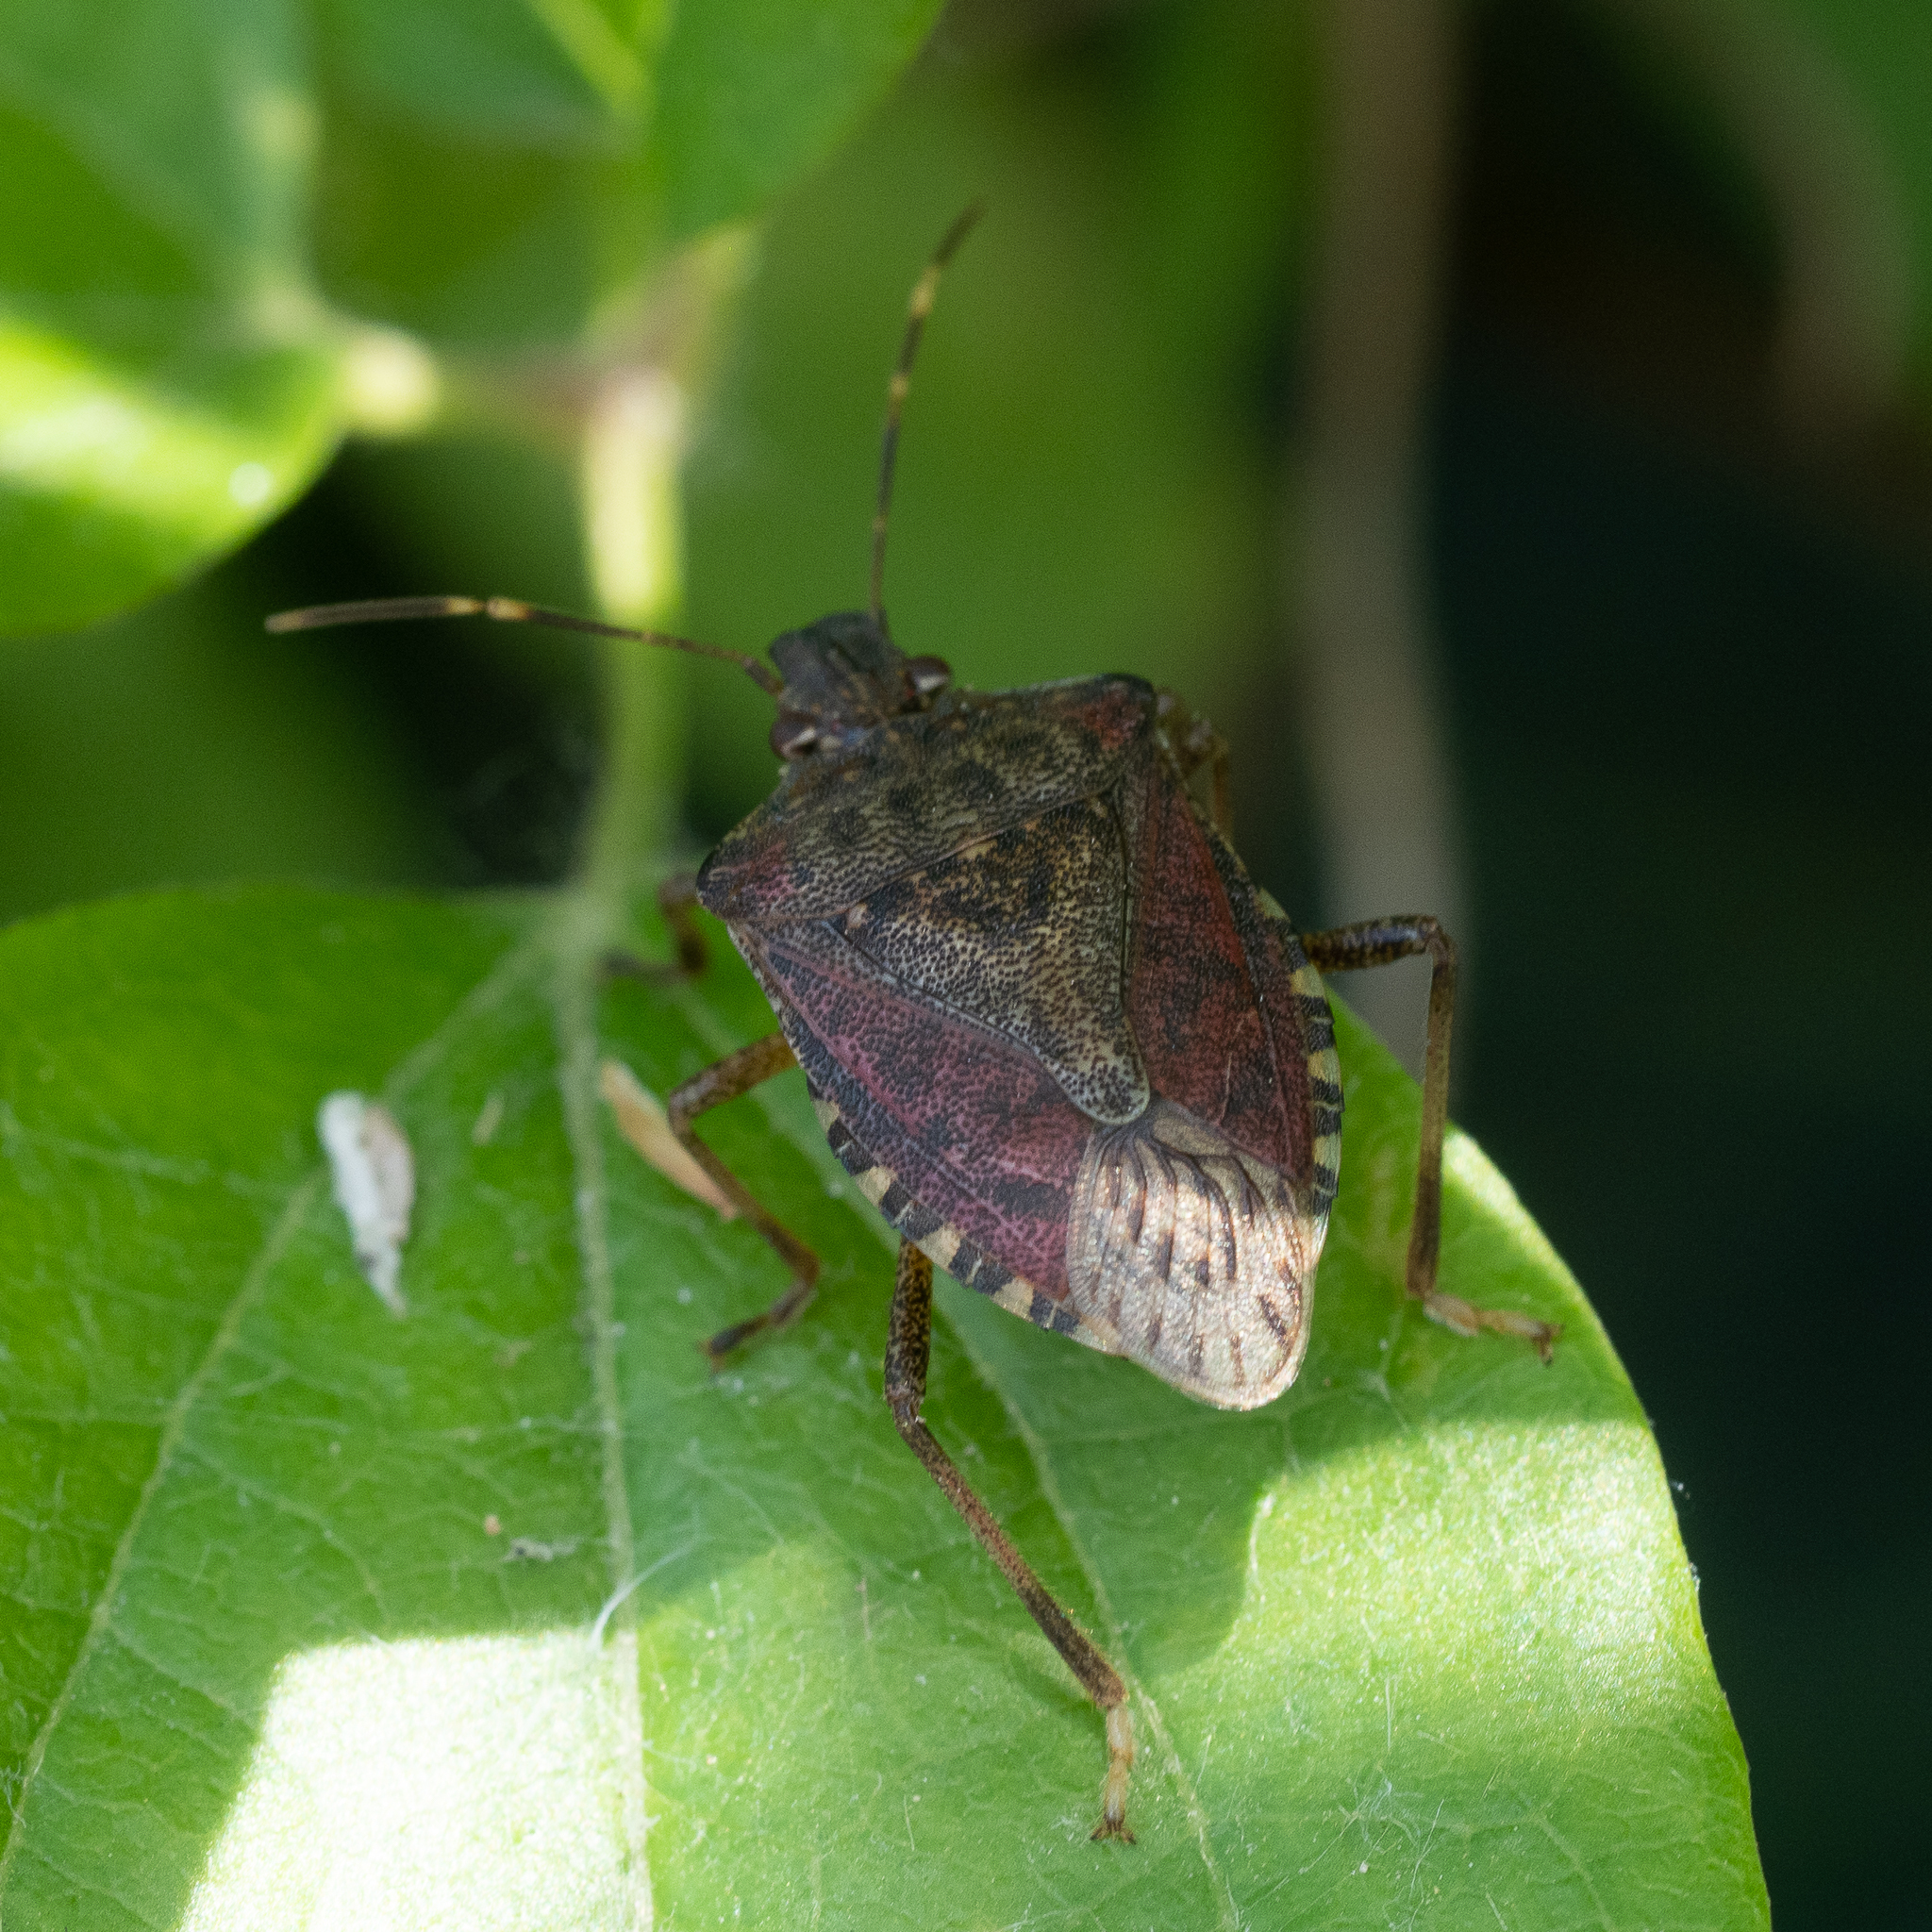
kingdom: Animalia
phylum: Arthropoda
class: Insecta
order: Hemiptera
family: Pentatomidae
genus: Halyomorpha
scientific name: Halyomorpha halys
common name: Brown marmorated stink bug
